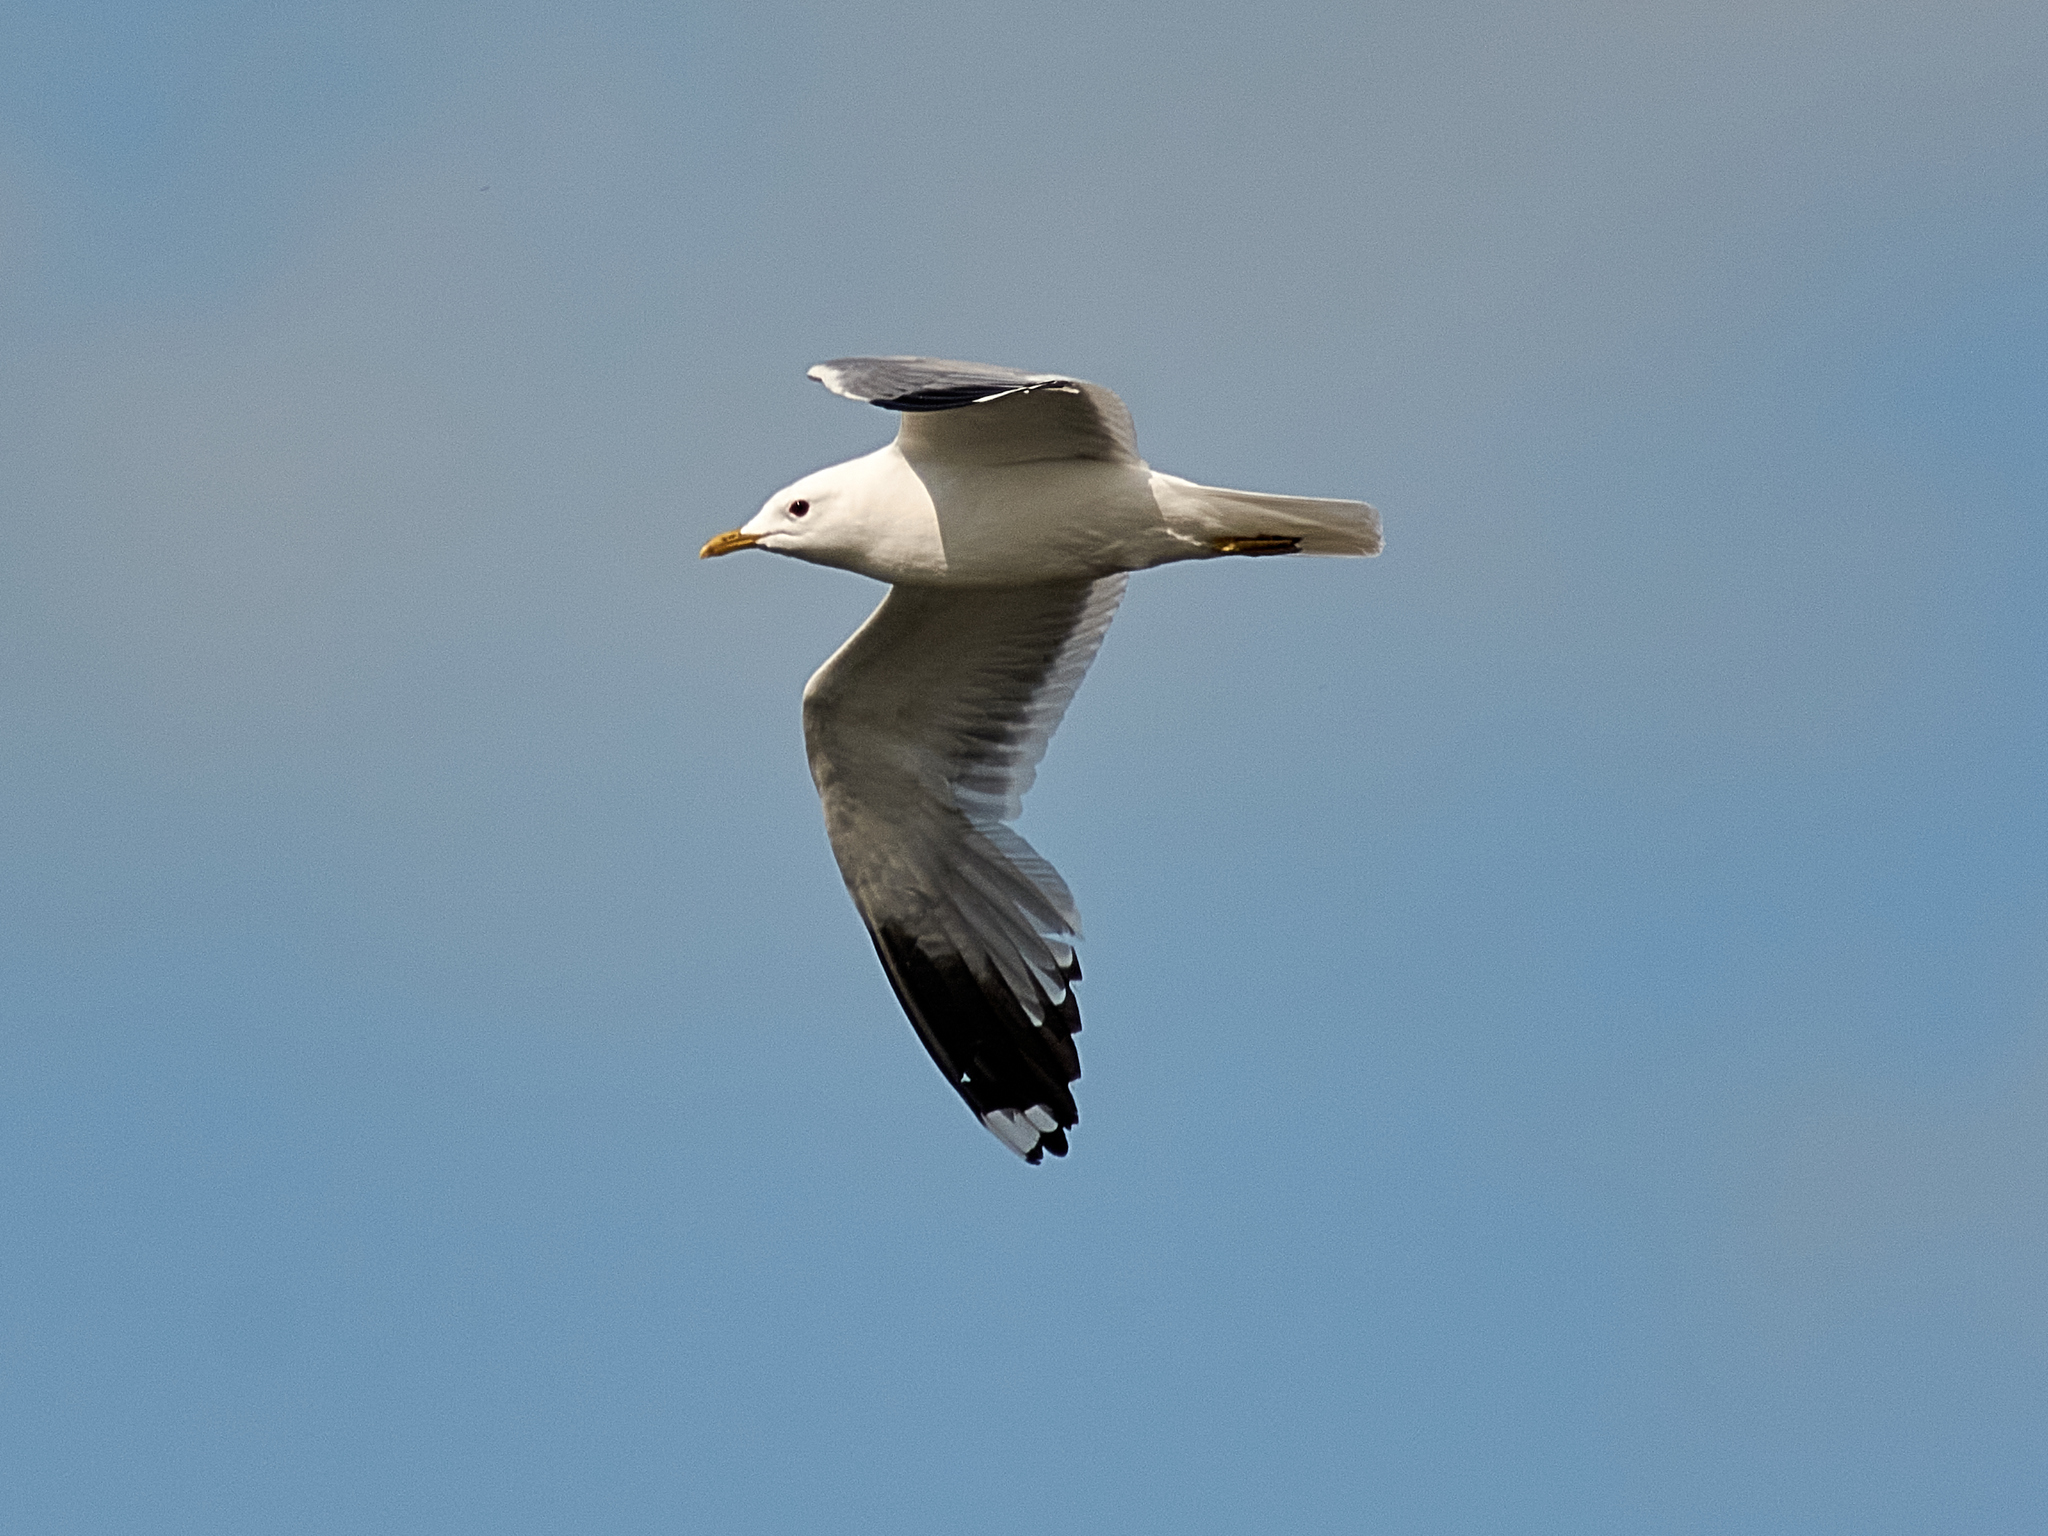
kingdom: Animalia
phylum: Chordata
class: Aves
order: Charadriiformes
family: Laridae
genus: Larus
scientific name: Larus canus
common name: Mew gull
